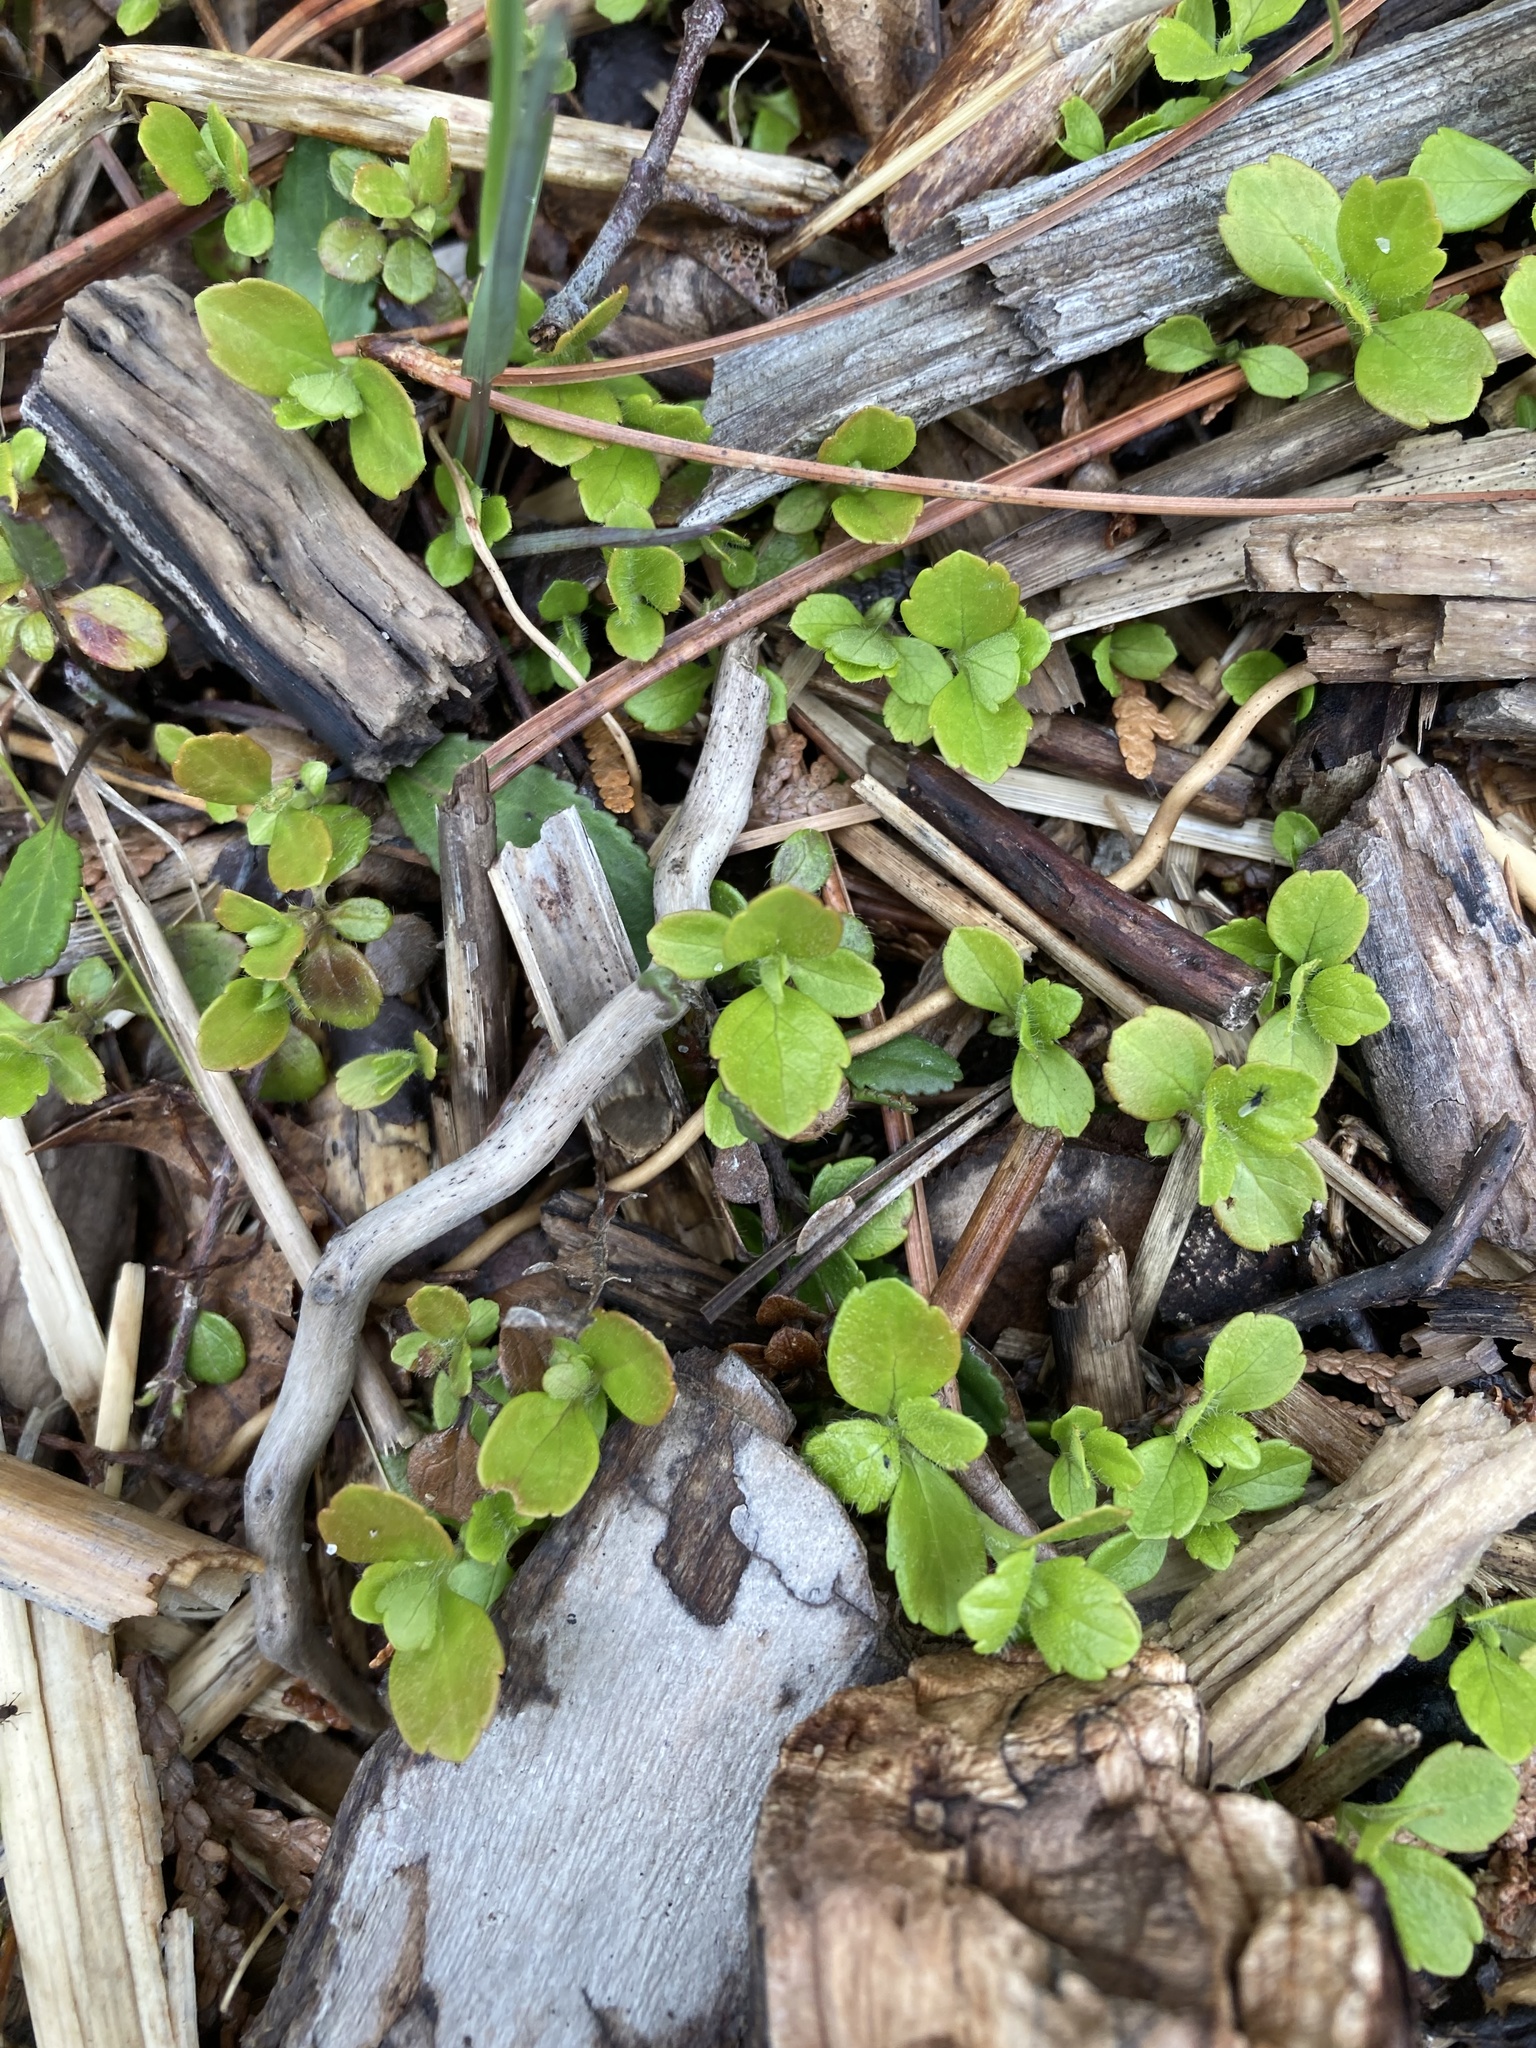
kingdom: Plantae
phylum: Tracheophyta
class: Magnoliopsida
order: Dipsacales
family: Caprifoliaceae
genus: Linnaea
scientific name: Linnaea borealis
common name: Twinflower
